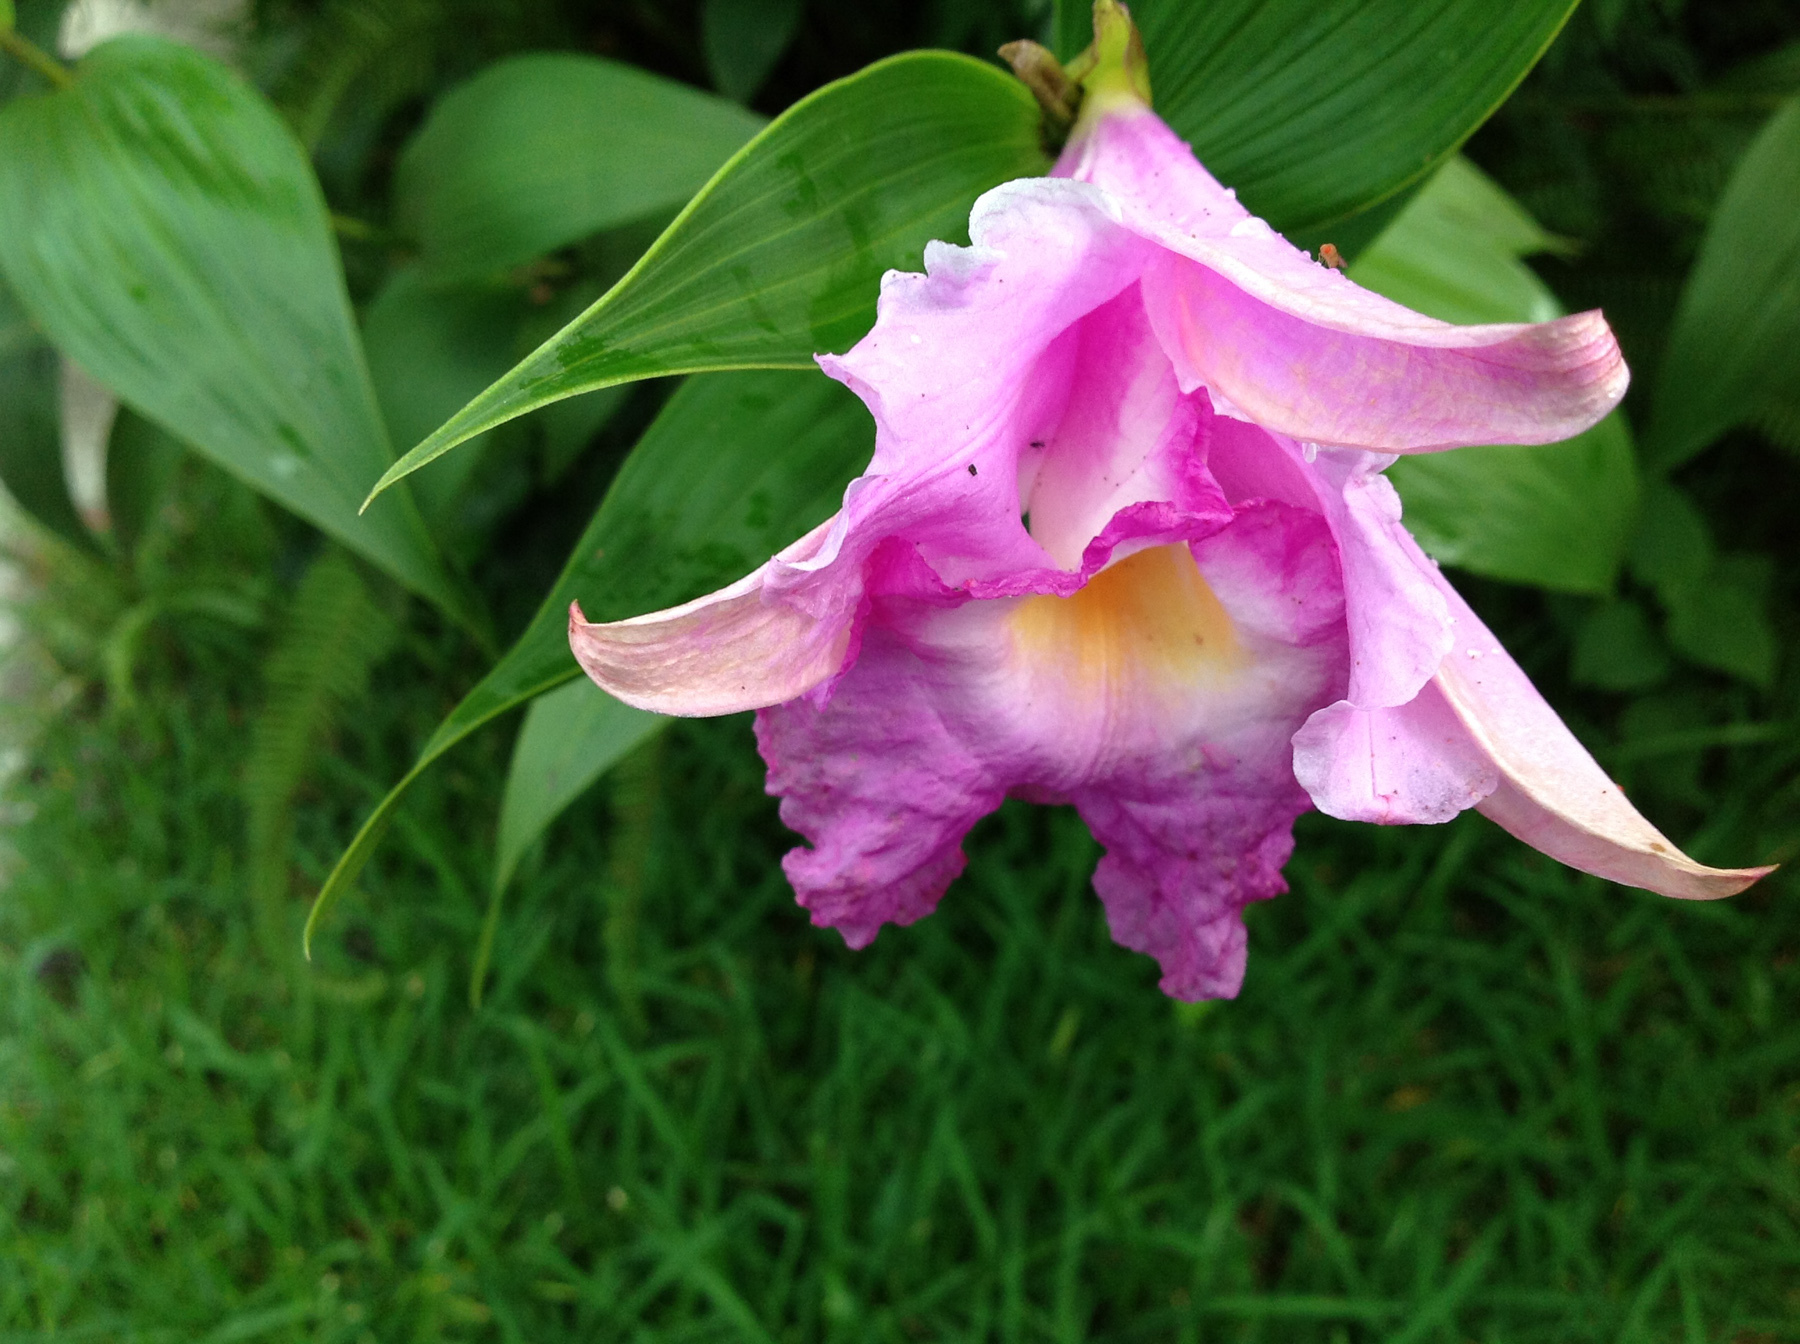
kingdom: Plantae
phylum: Tracheophyta
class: Liliopsida
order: Asparagales
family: Orchidaceae
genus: Sobralia
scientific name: Sobralia macrantha
